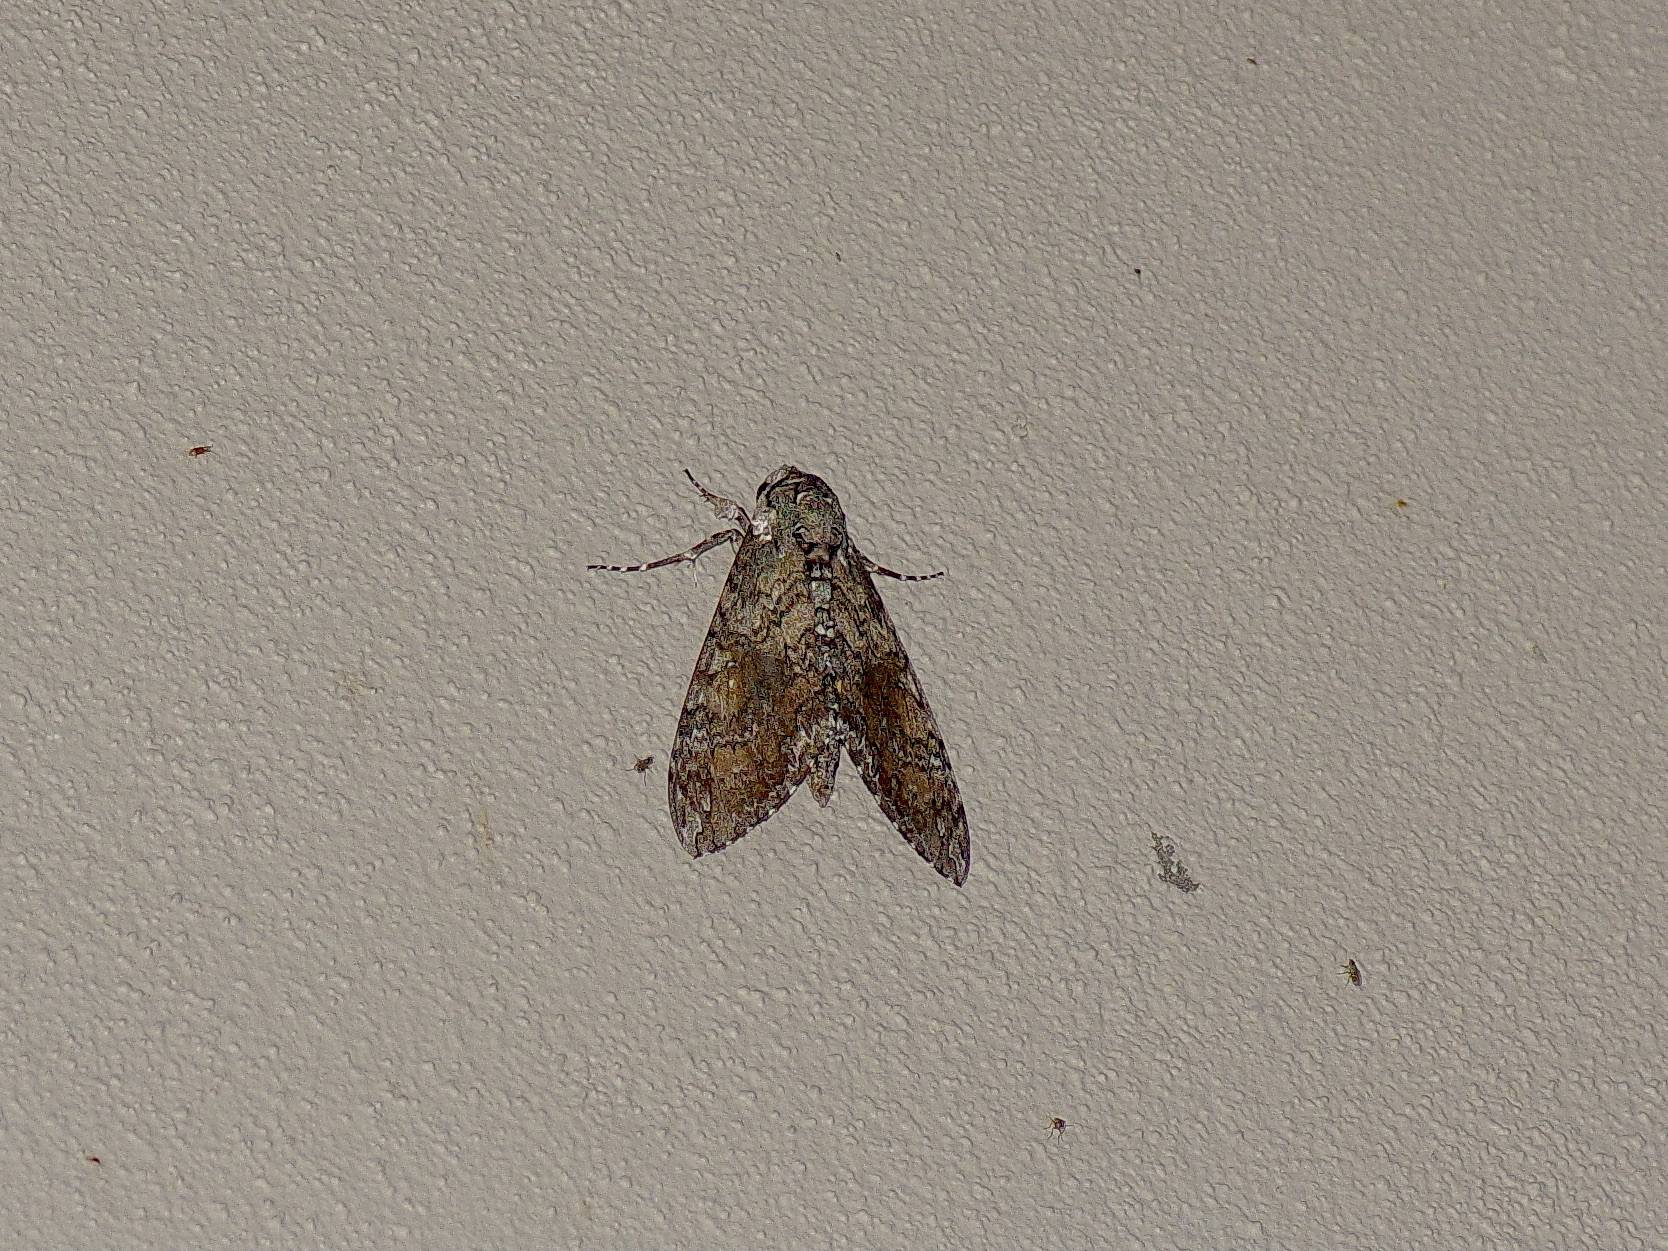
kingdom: Animalia
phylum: Arthropoda
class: Insecta
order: Lepidoptera
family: Sphingidae
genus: Manduca
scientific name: Manduca sexta
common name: Carolina sphinx
